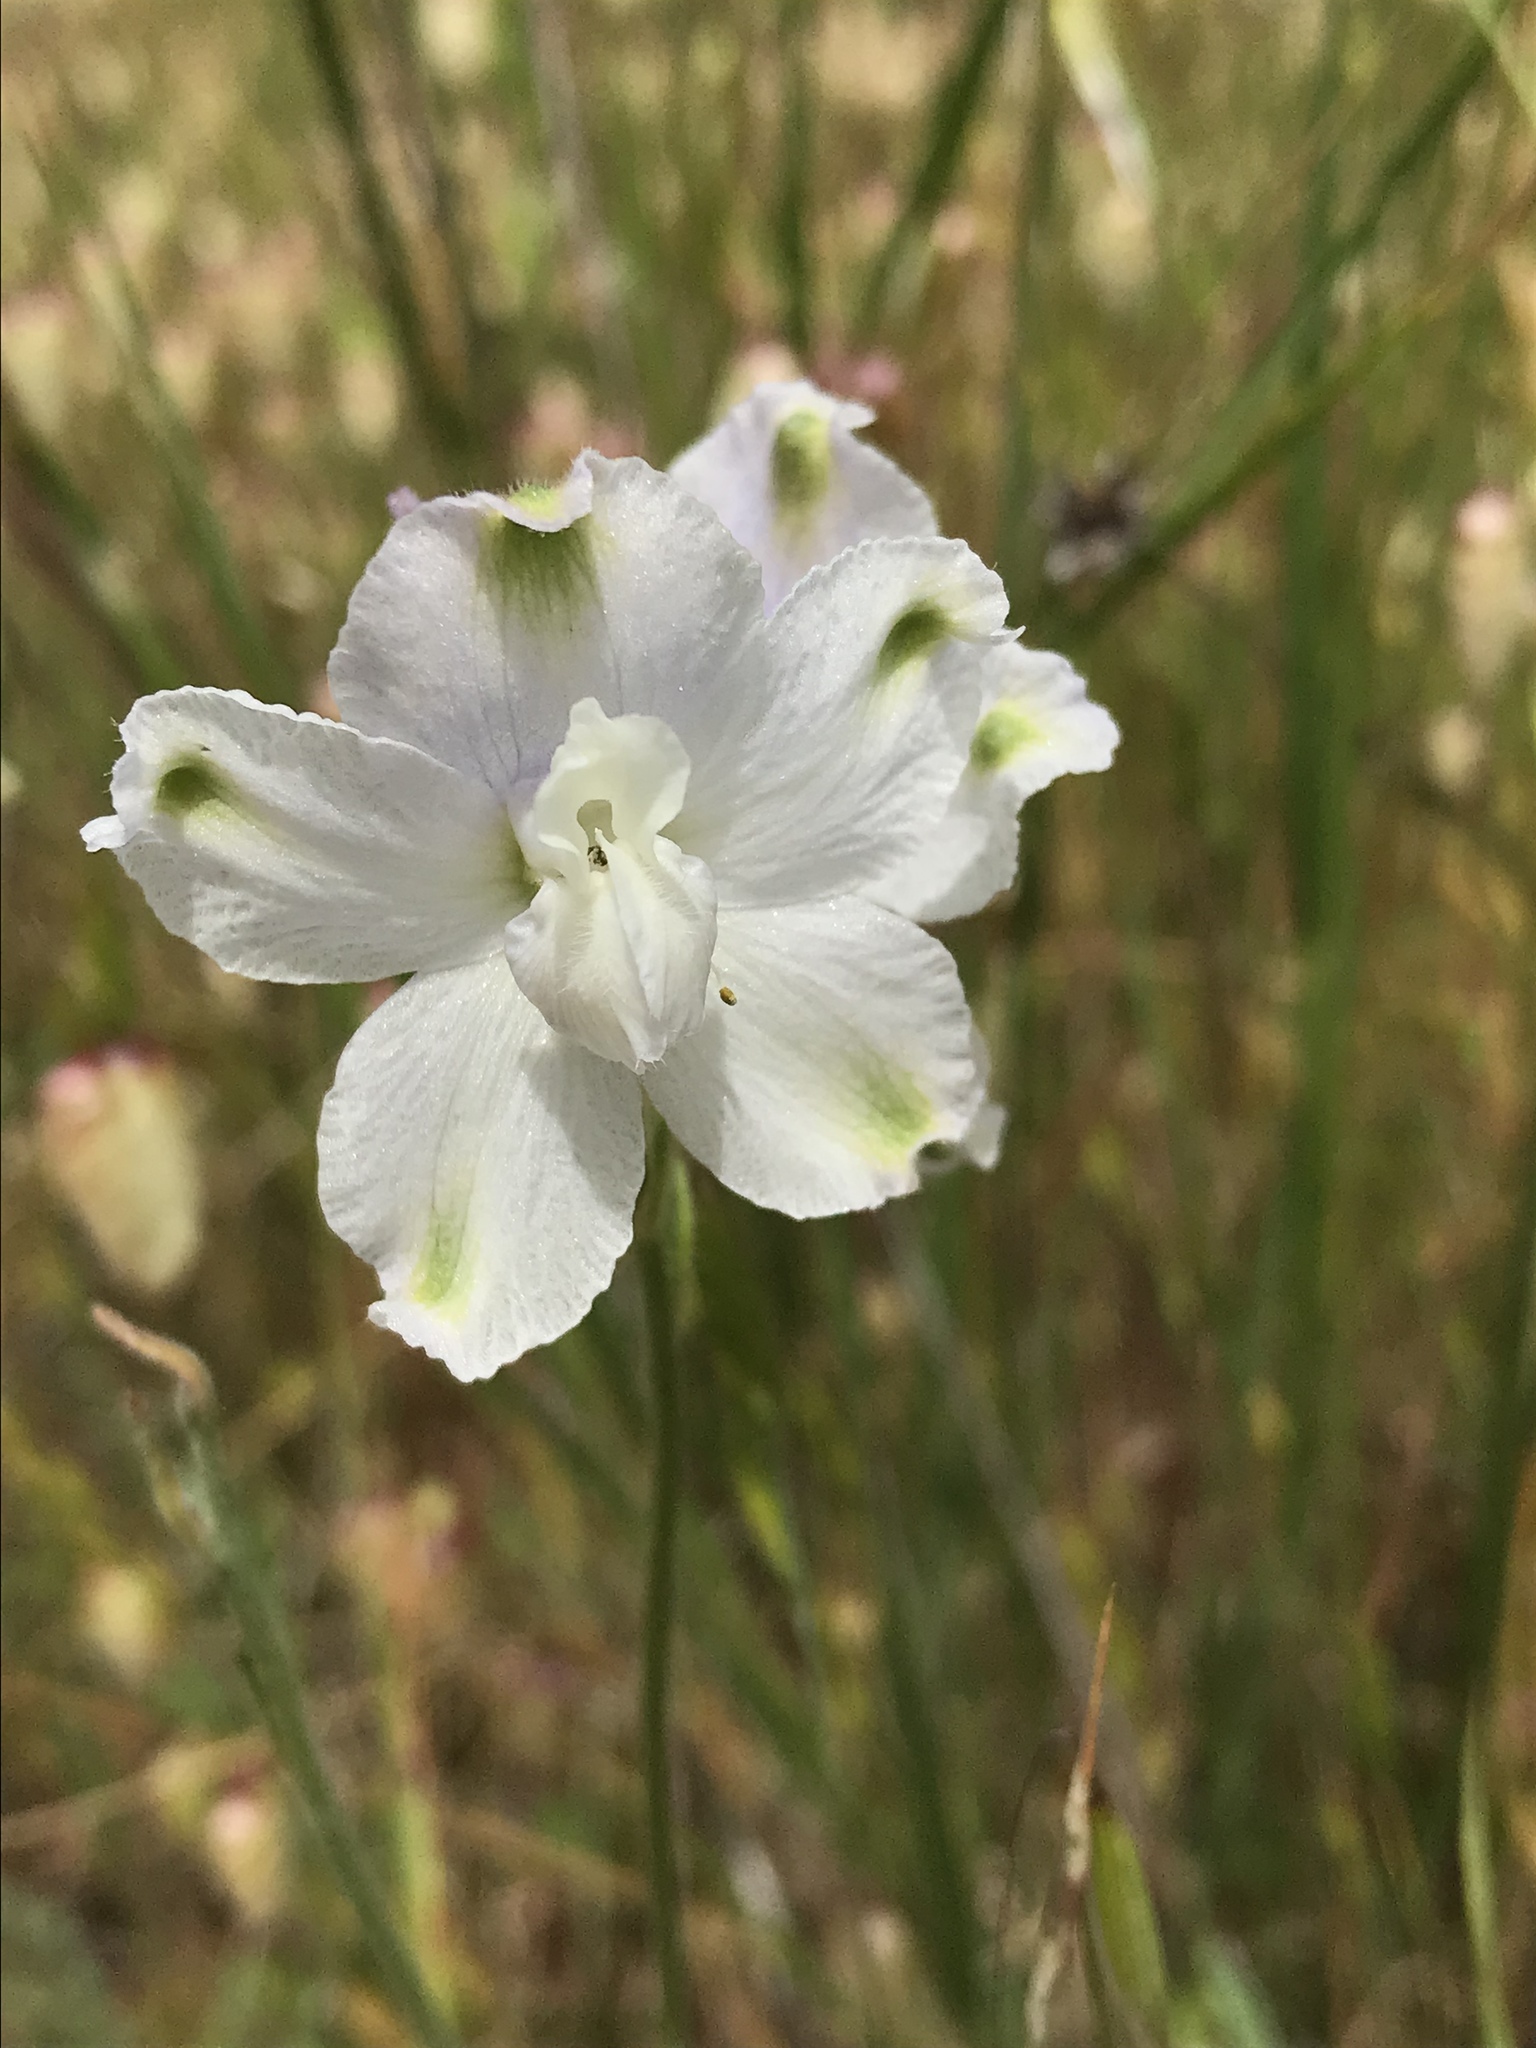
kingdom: Plantae
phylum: Tracheophyta
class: Magnoliopsida
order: Ranunculales
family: Ranunculaceae
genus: Delphinium
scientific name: Delphinium variegatum
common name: Royal larkspur
